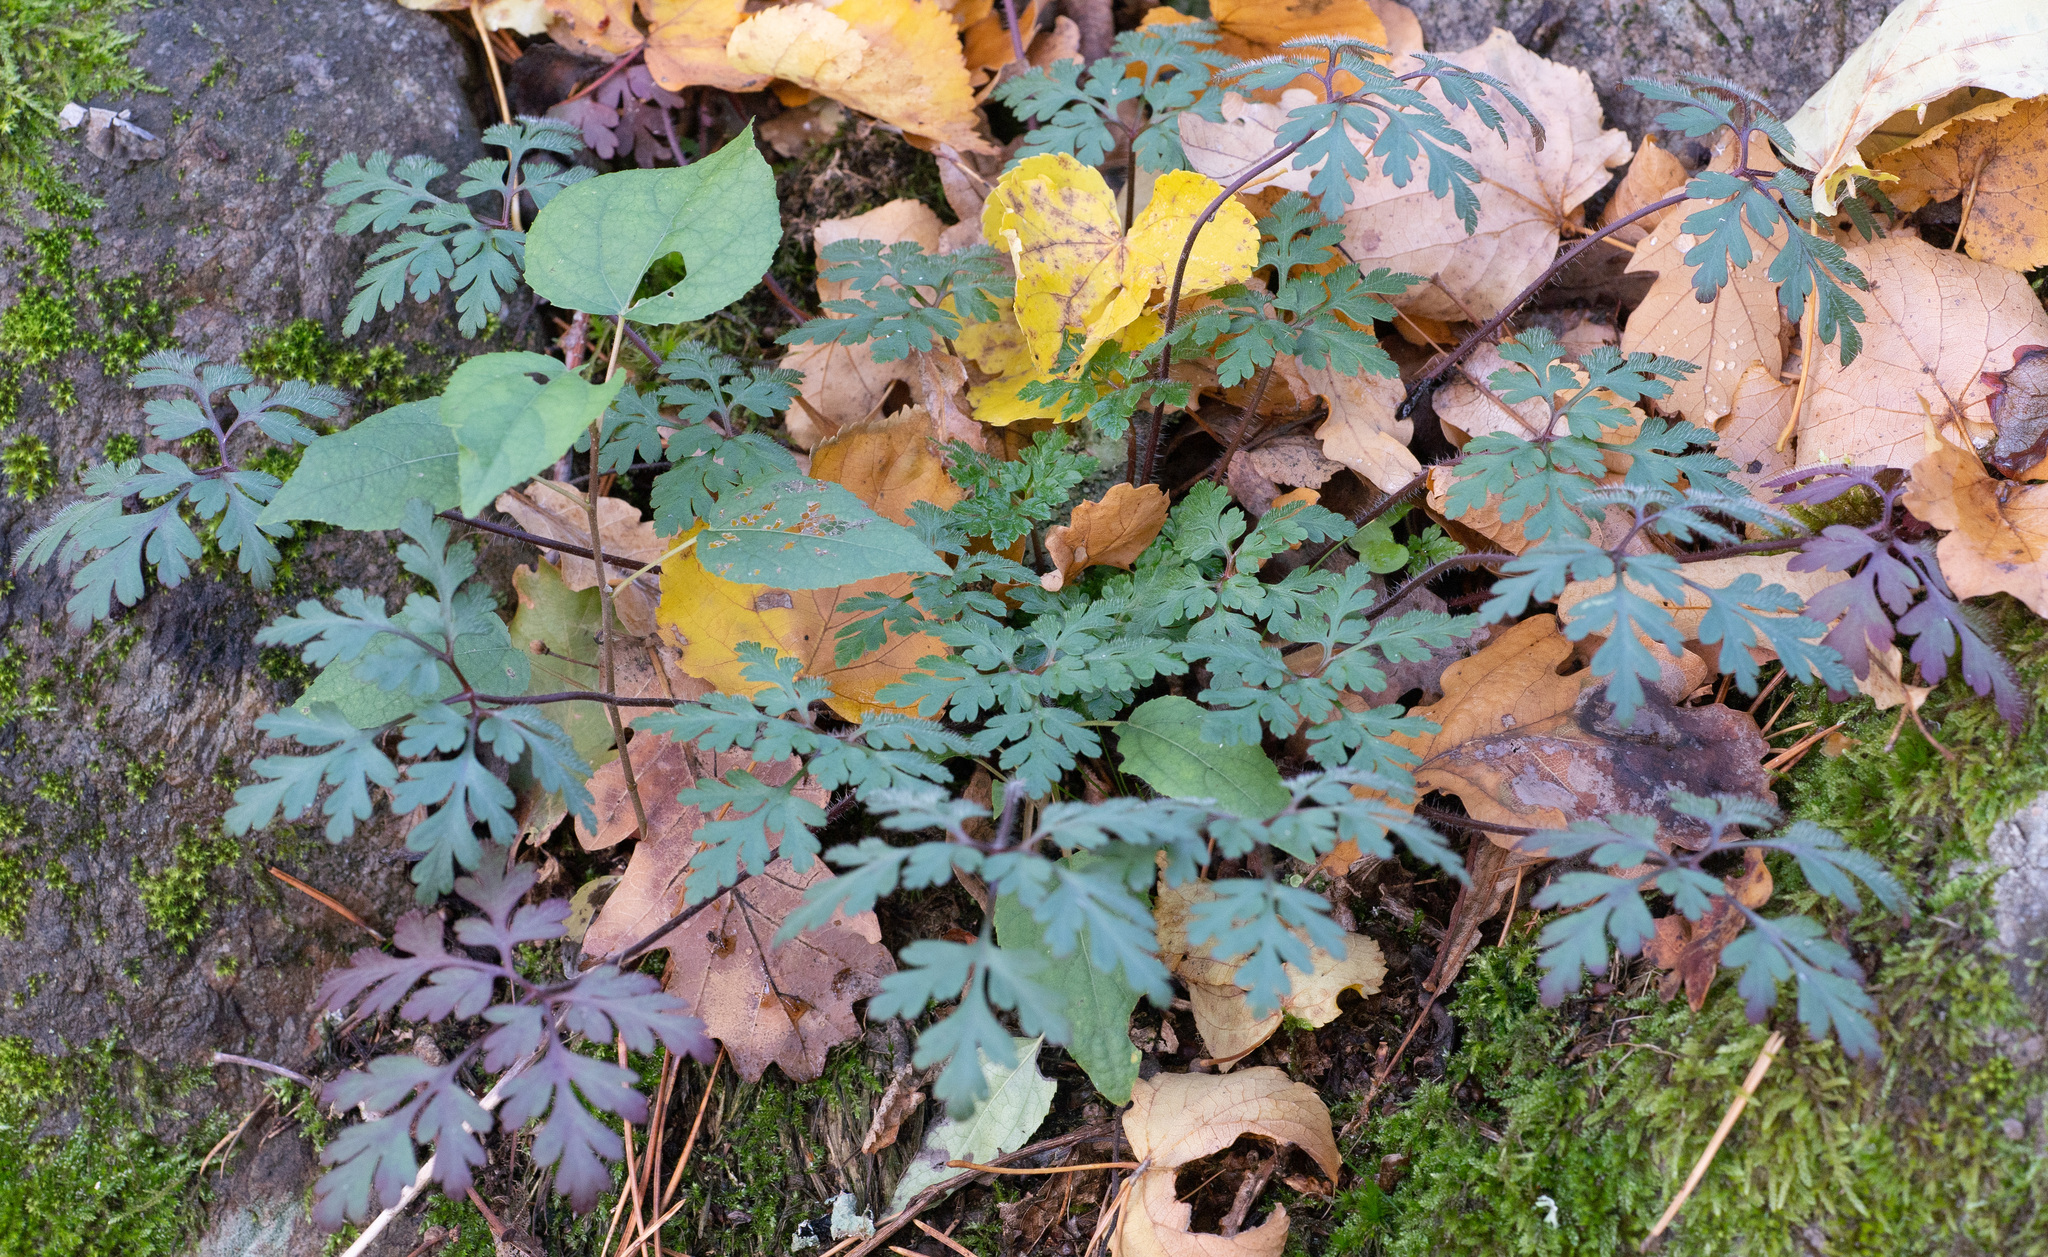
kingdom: Plantae
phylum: Tracheophyta
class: Magnoliopsida
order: Geraniales
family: Geraniaceae
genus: Geranium
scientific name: Geranium robertianum
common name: Herb-robert
